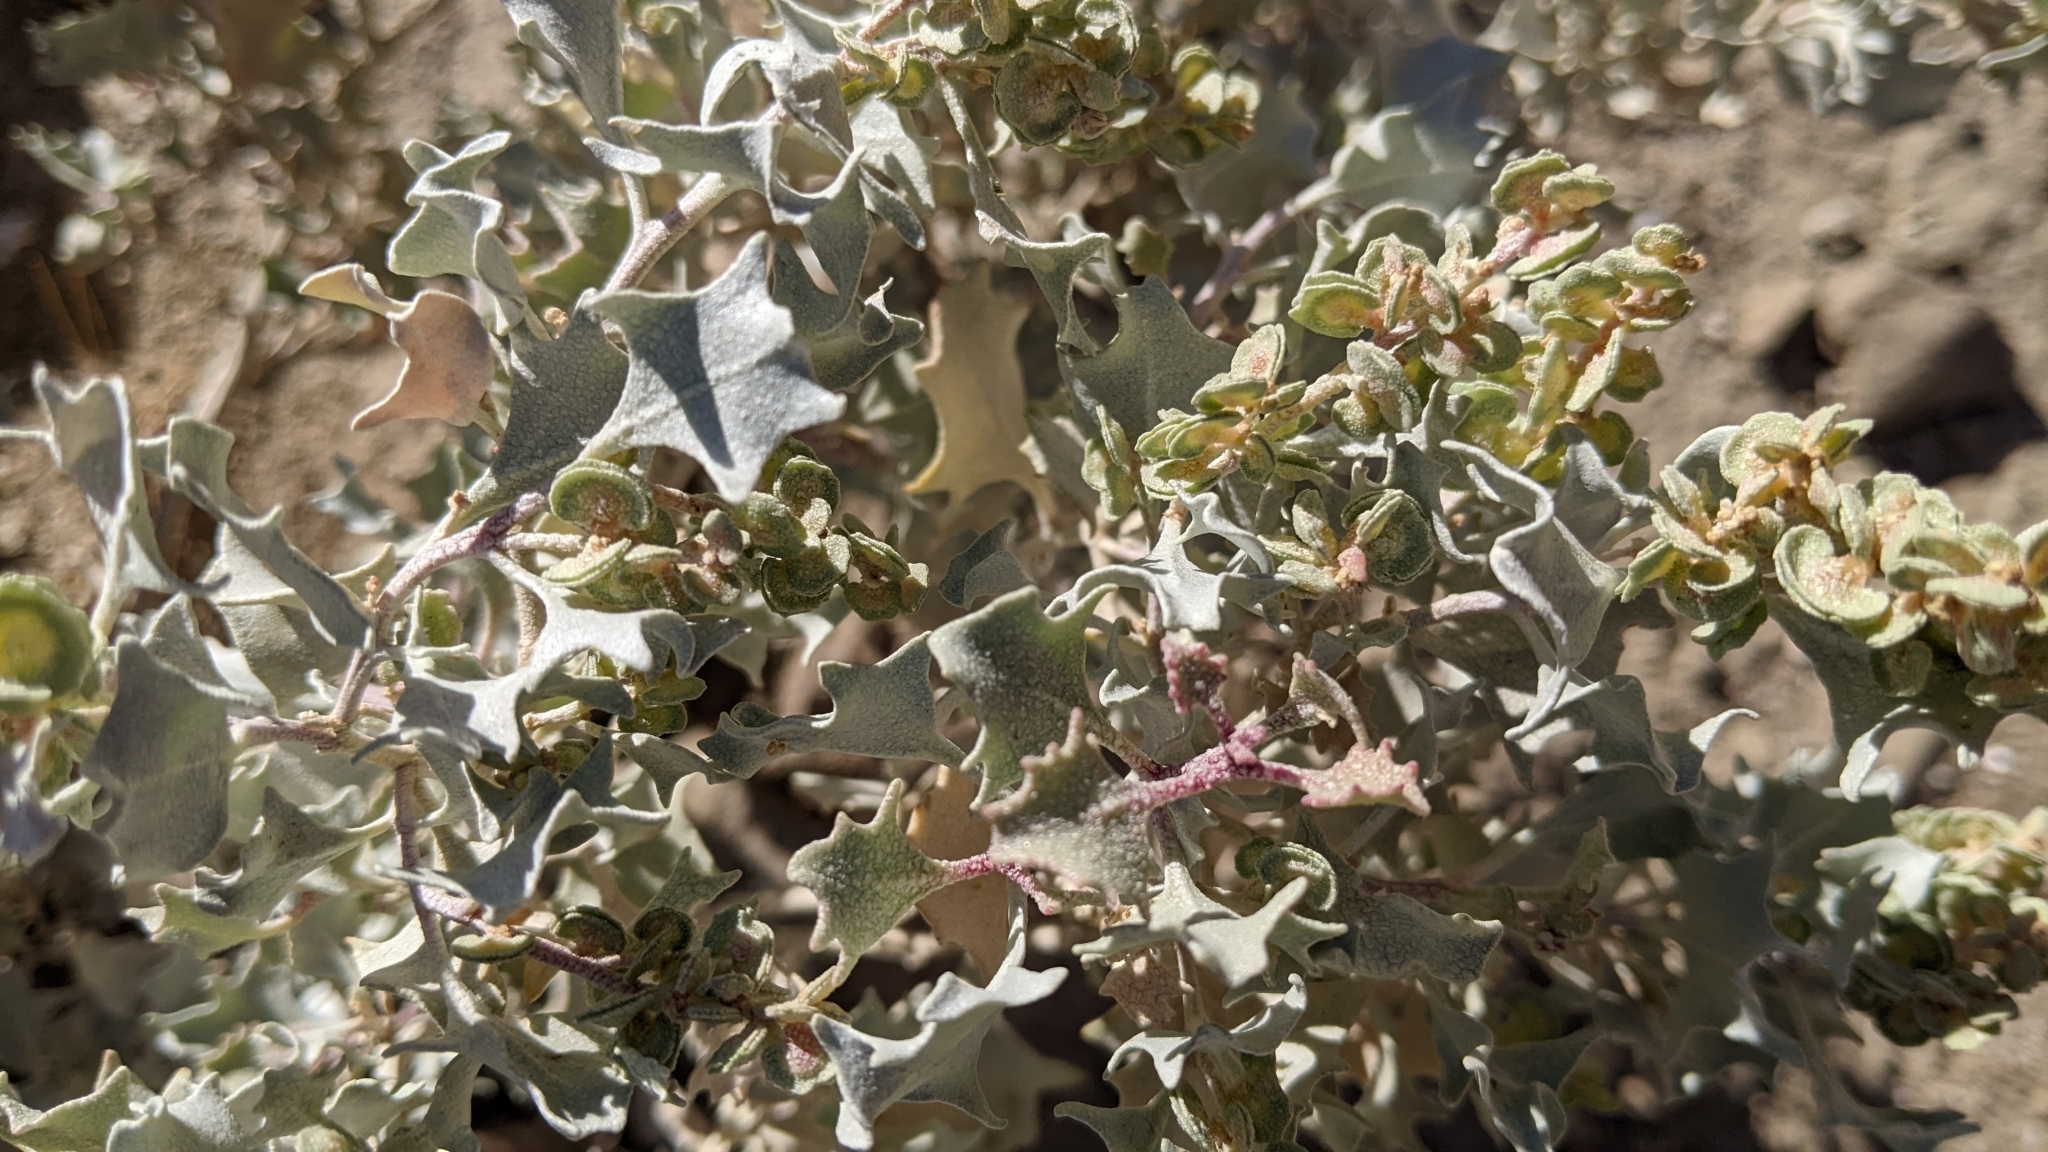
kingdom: Plantae
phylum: Tracheophyta
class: Magnoliopsida
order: Caryophyllales
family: Amaranthaceae
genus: Atriplex
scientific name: Atriplex hymenelytra
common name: Desert-holly
